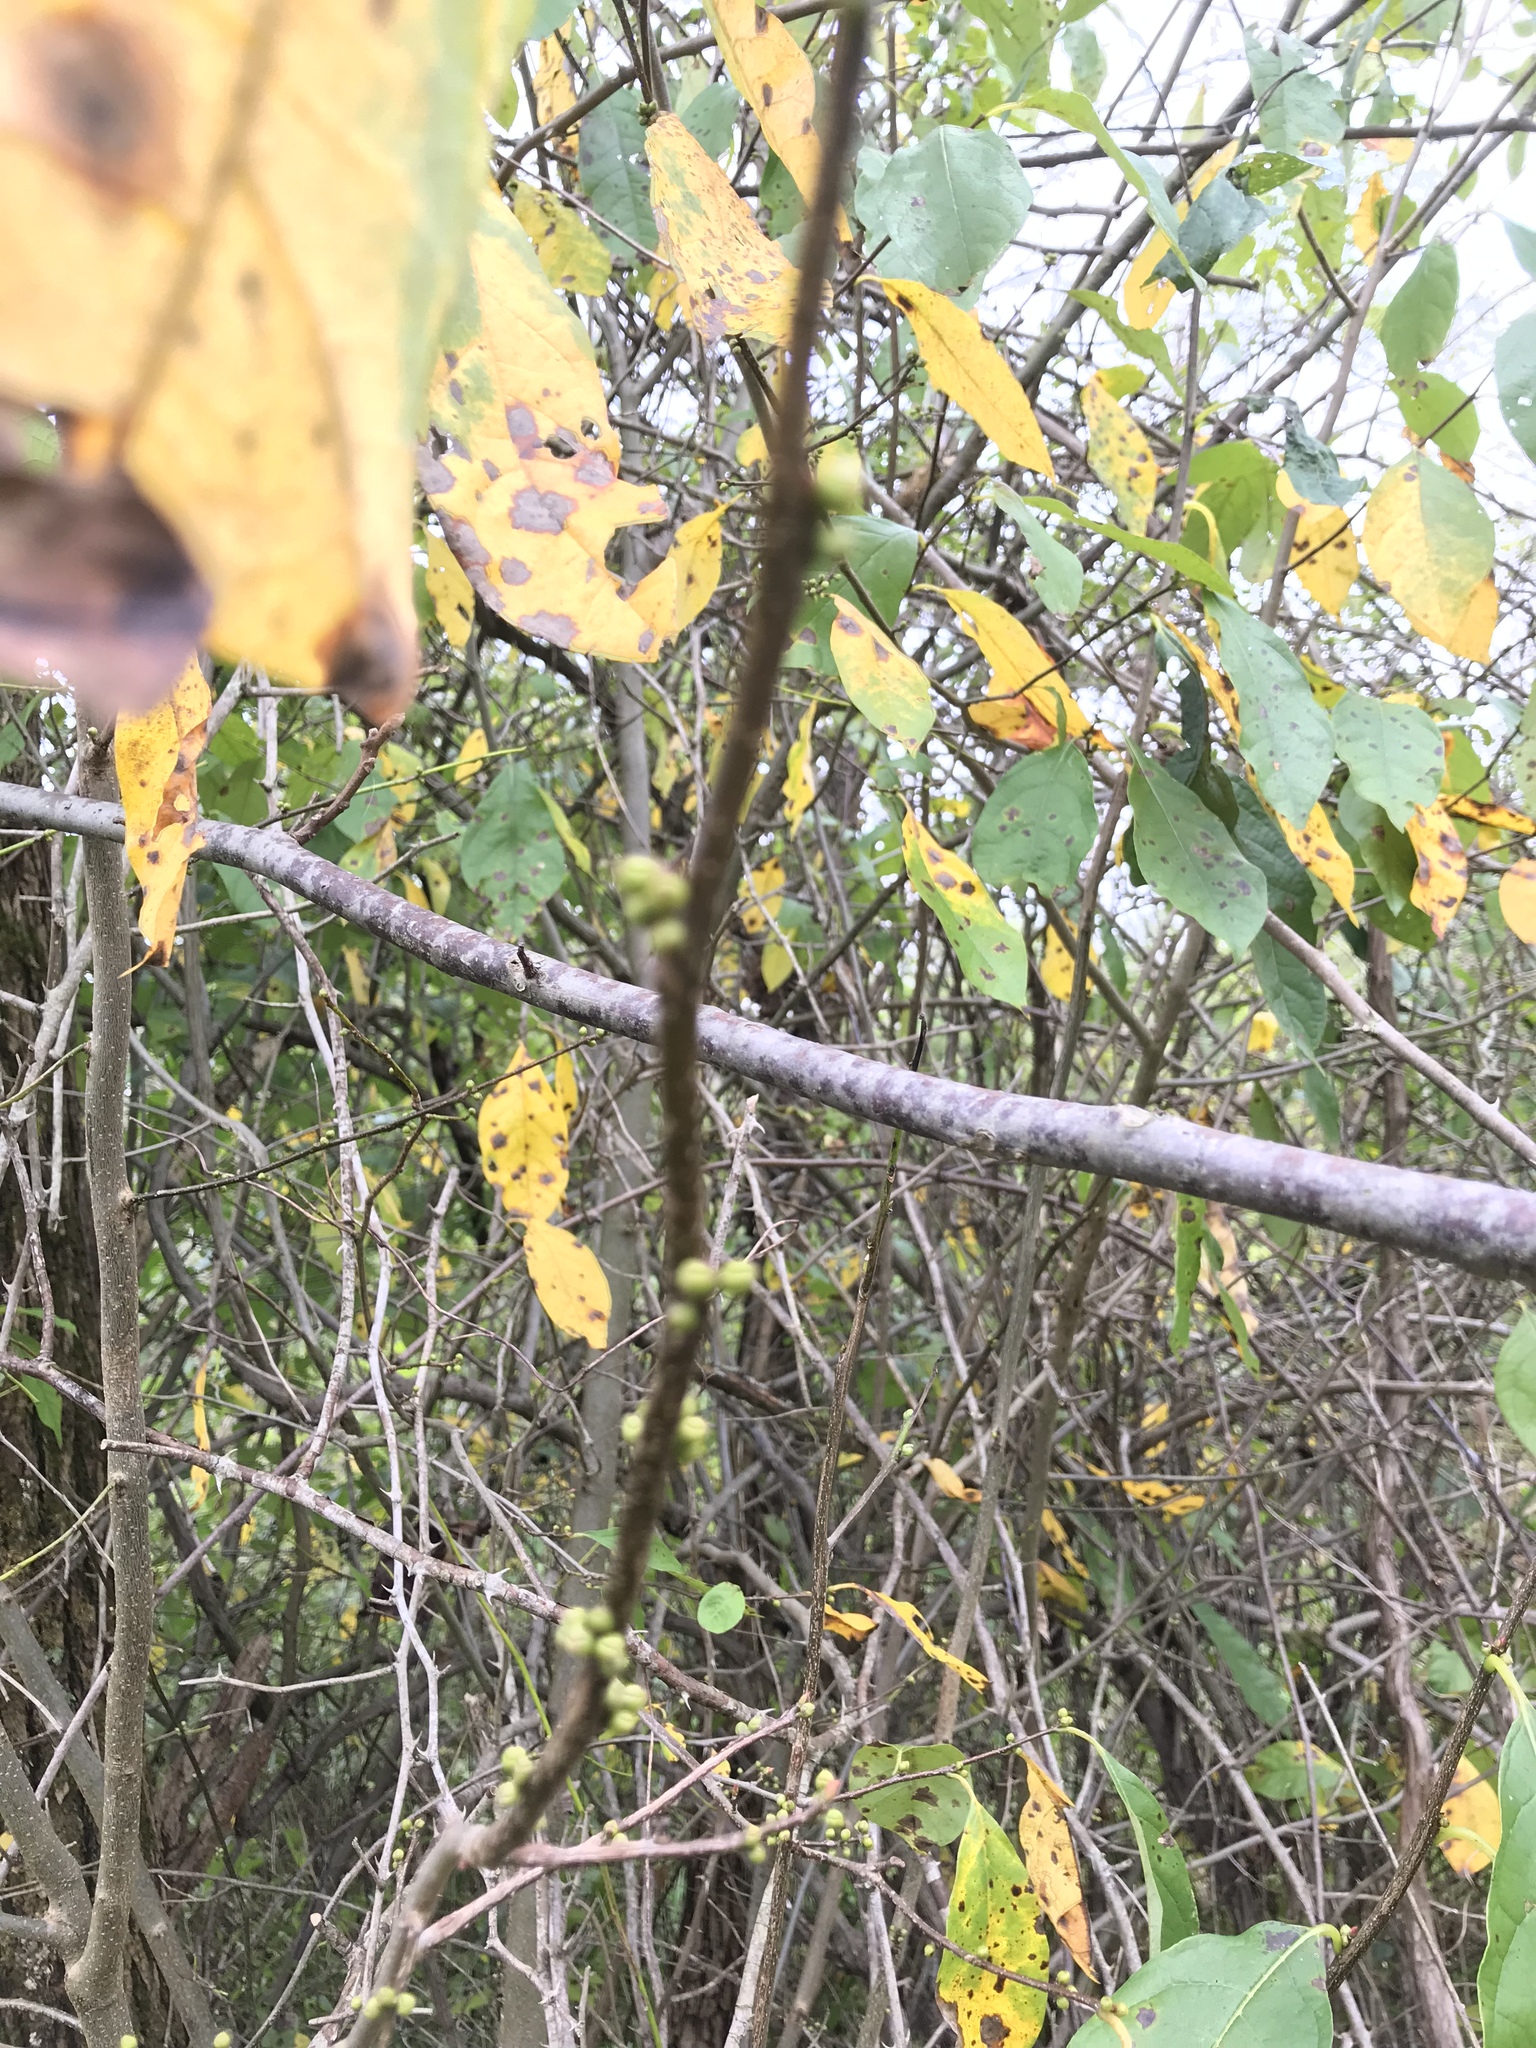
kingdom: Plantae
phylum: Tracheophyta
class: Magnoliopsida
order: Laurales
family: Lauraceae
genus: Lindera
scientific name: Lindera benzoin
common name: Spicebush
